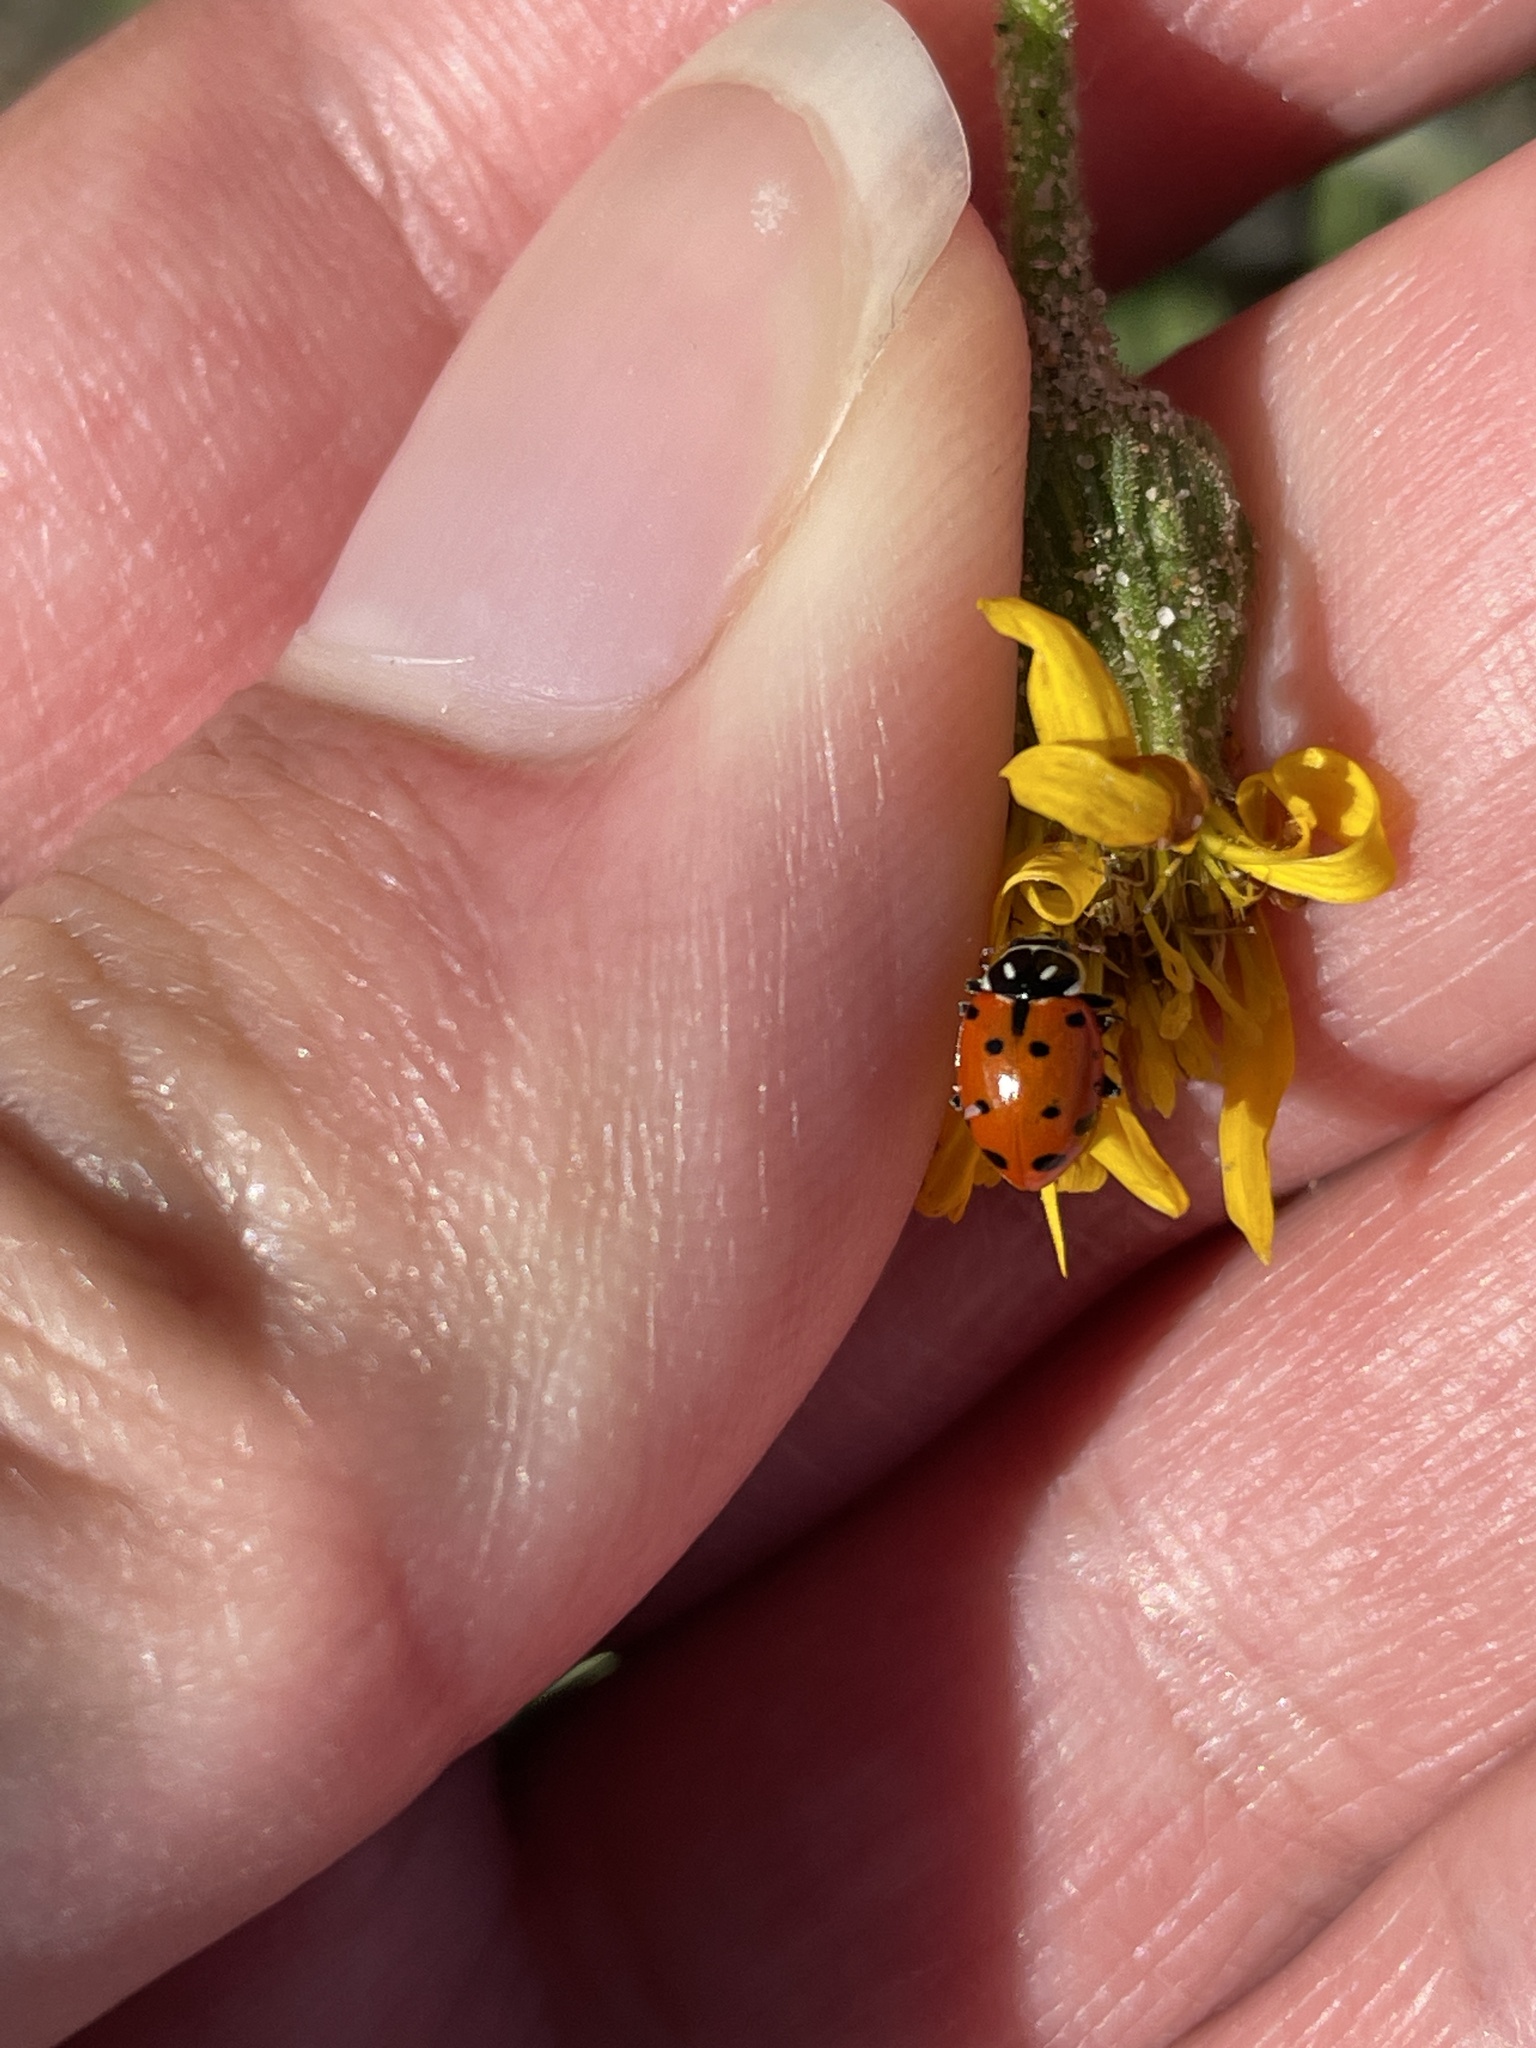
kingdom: Animalia
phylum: Arthropoda
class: Insecta
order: Coleoptera
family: Coccinellidae
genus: Hippodamia
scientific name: Hippodamia convergens
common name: Convergent lady beetle
